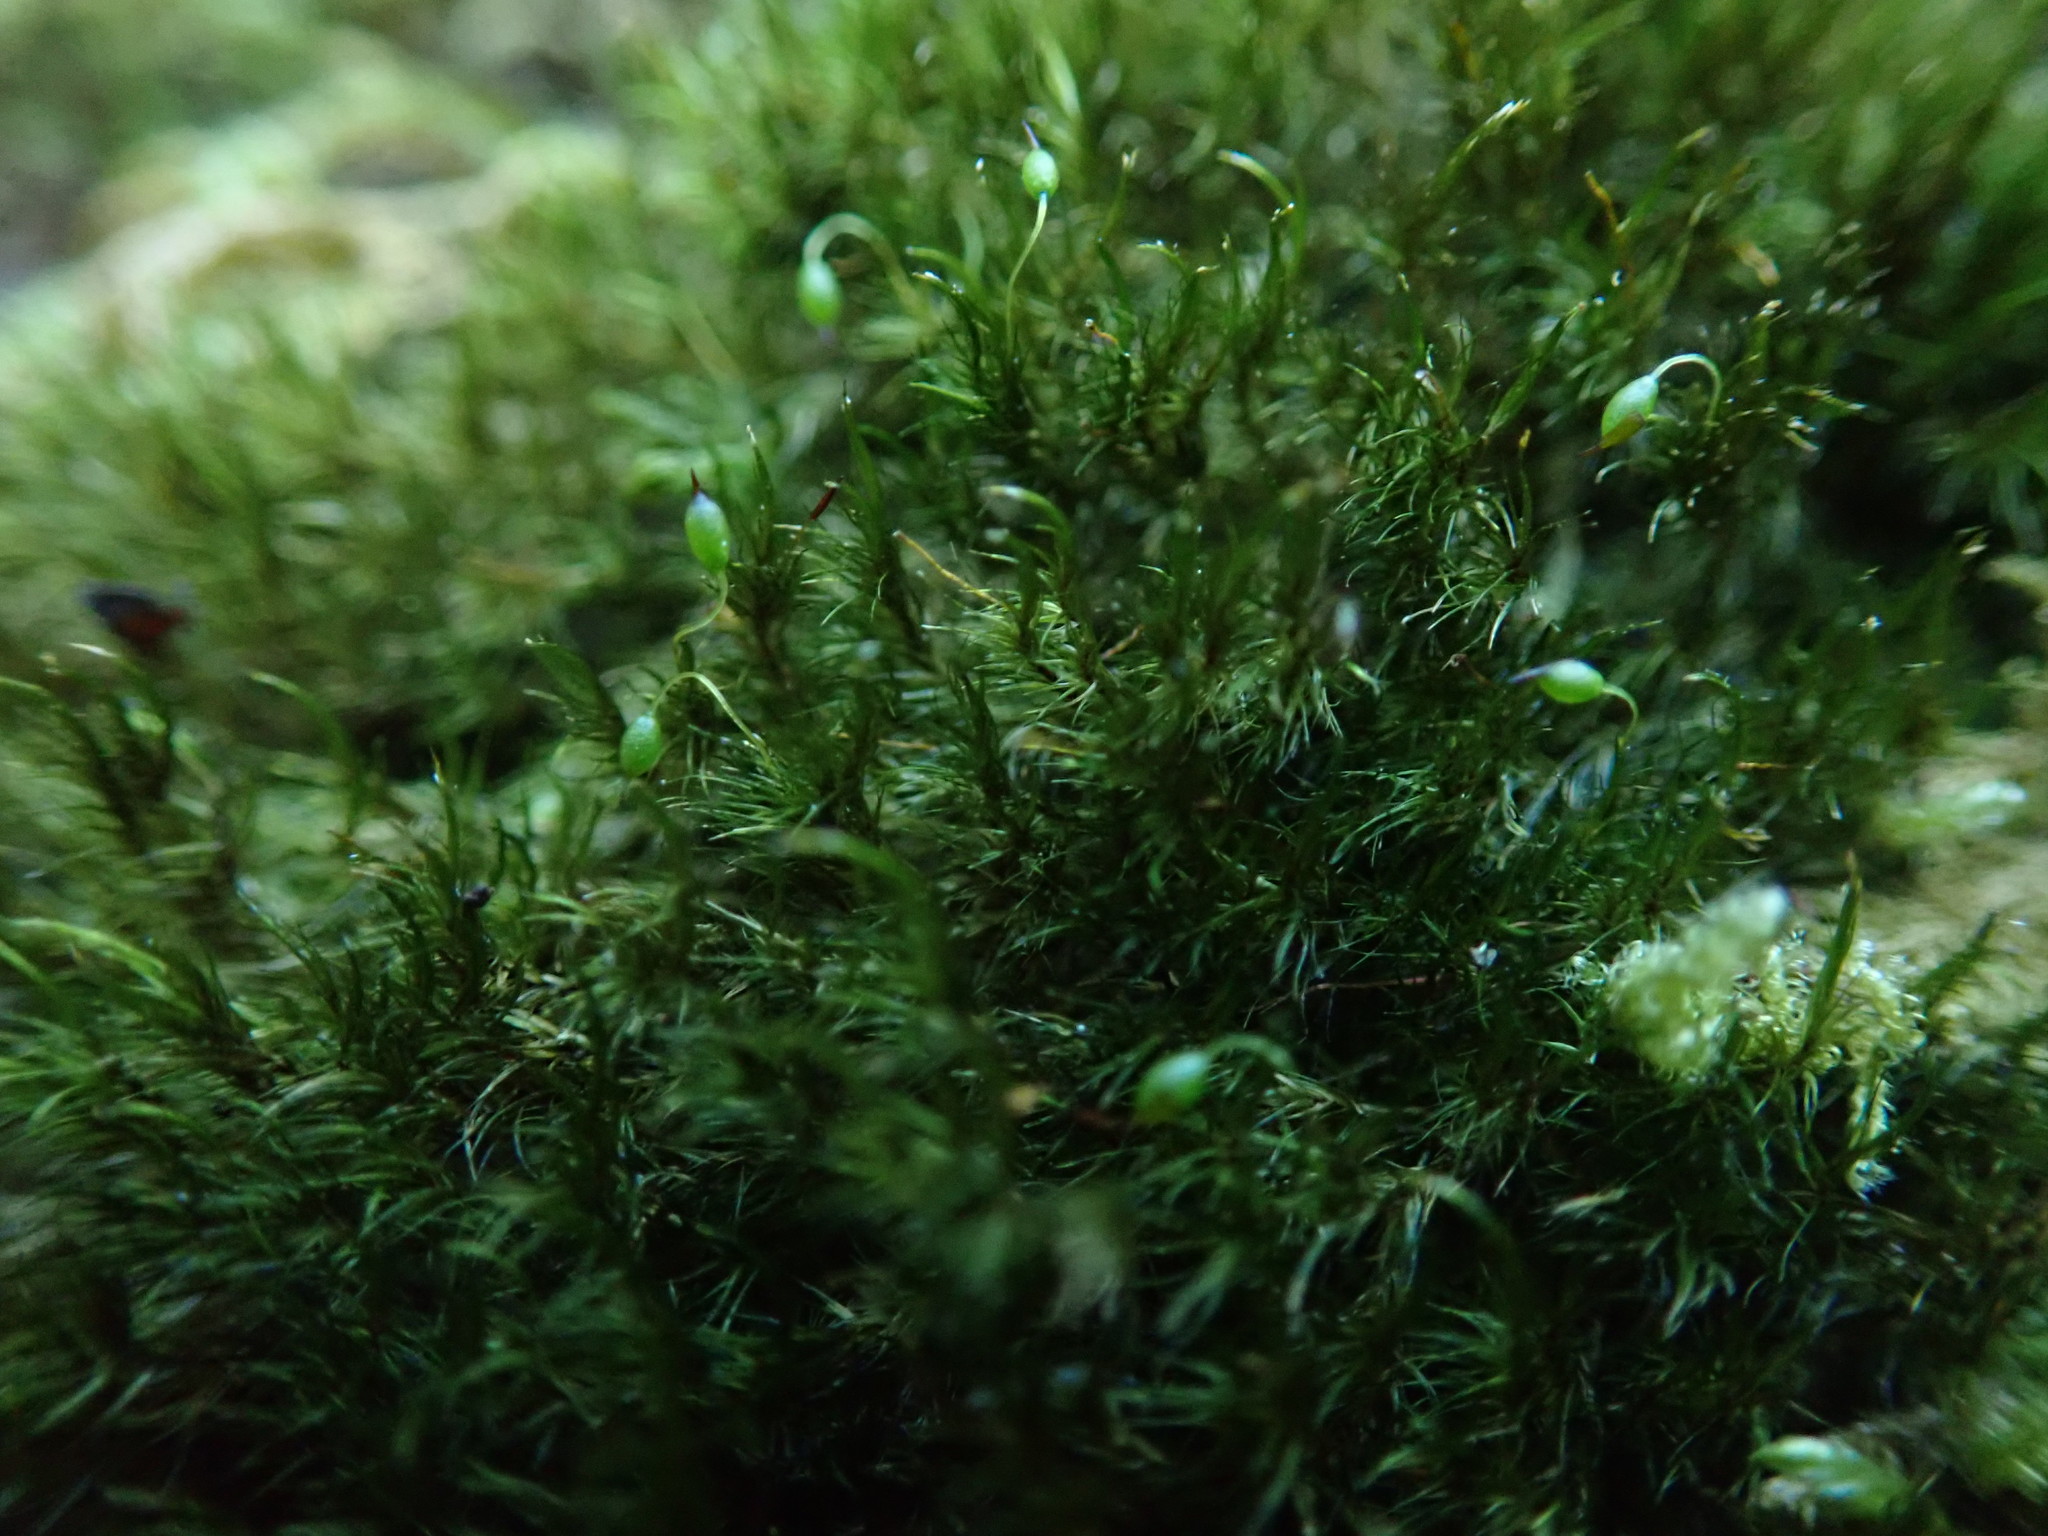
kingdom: Plantae
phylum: Bryophyta
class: Bryopsida
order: Grimmiales
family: Seligeriaceae
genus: Blindia
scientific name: Blindia acuta
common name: Sharp-leaved blind's moss
